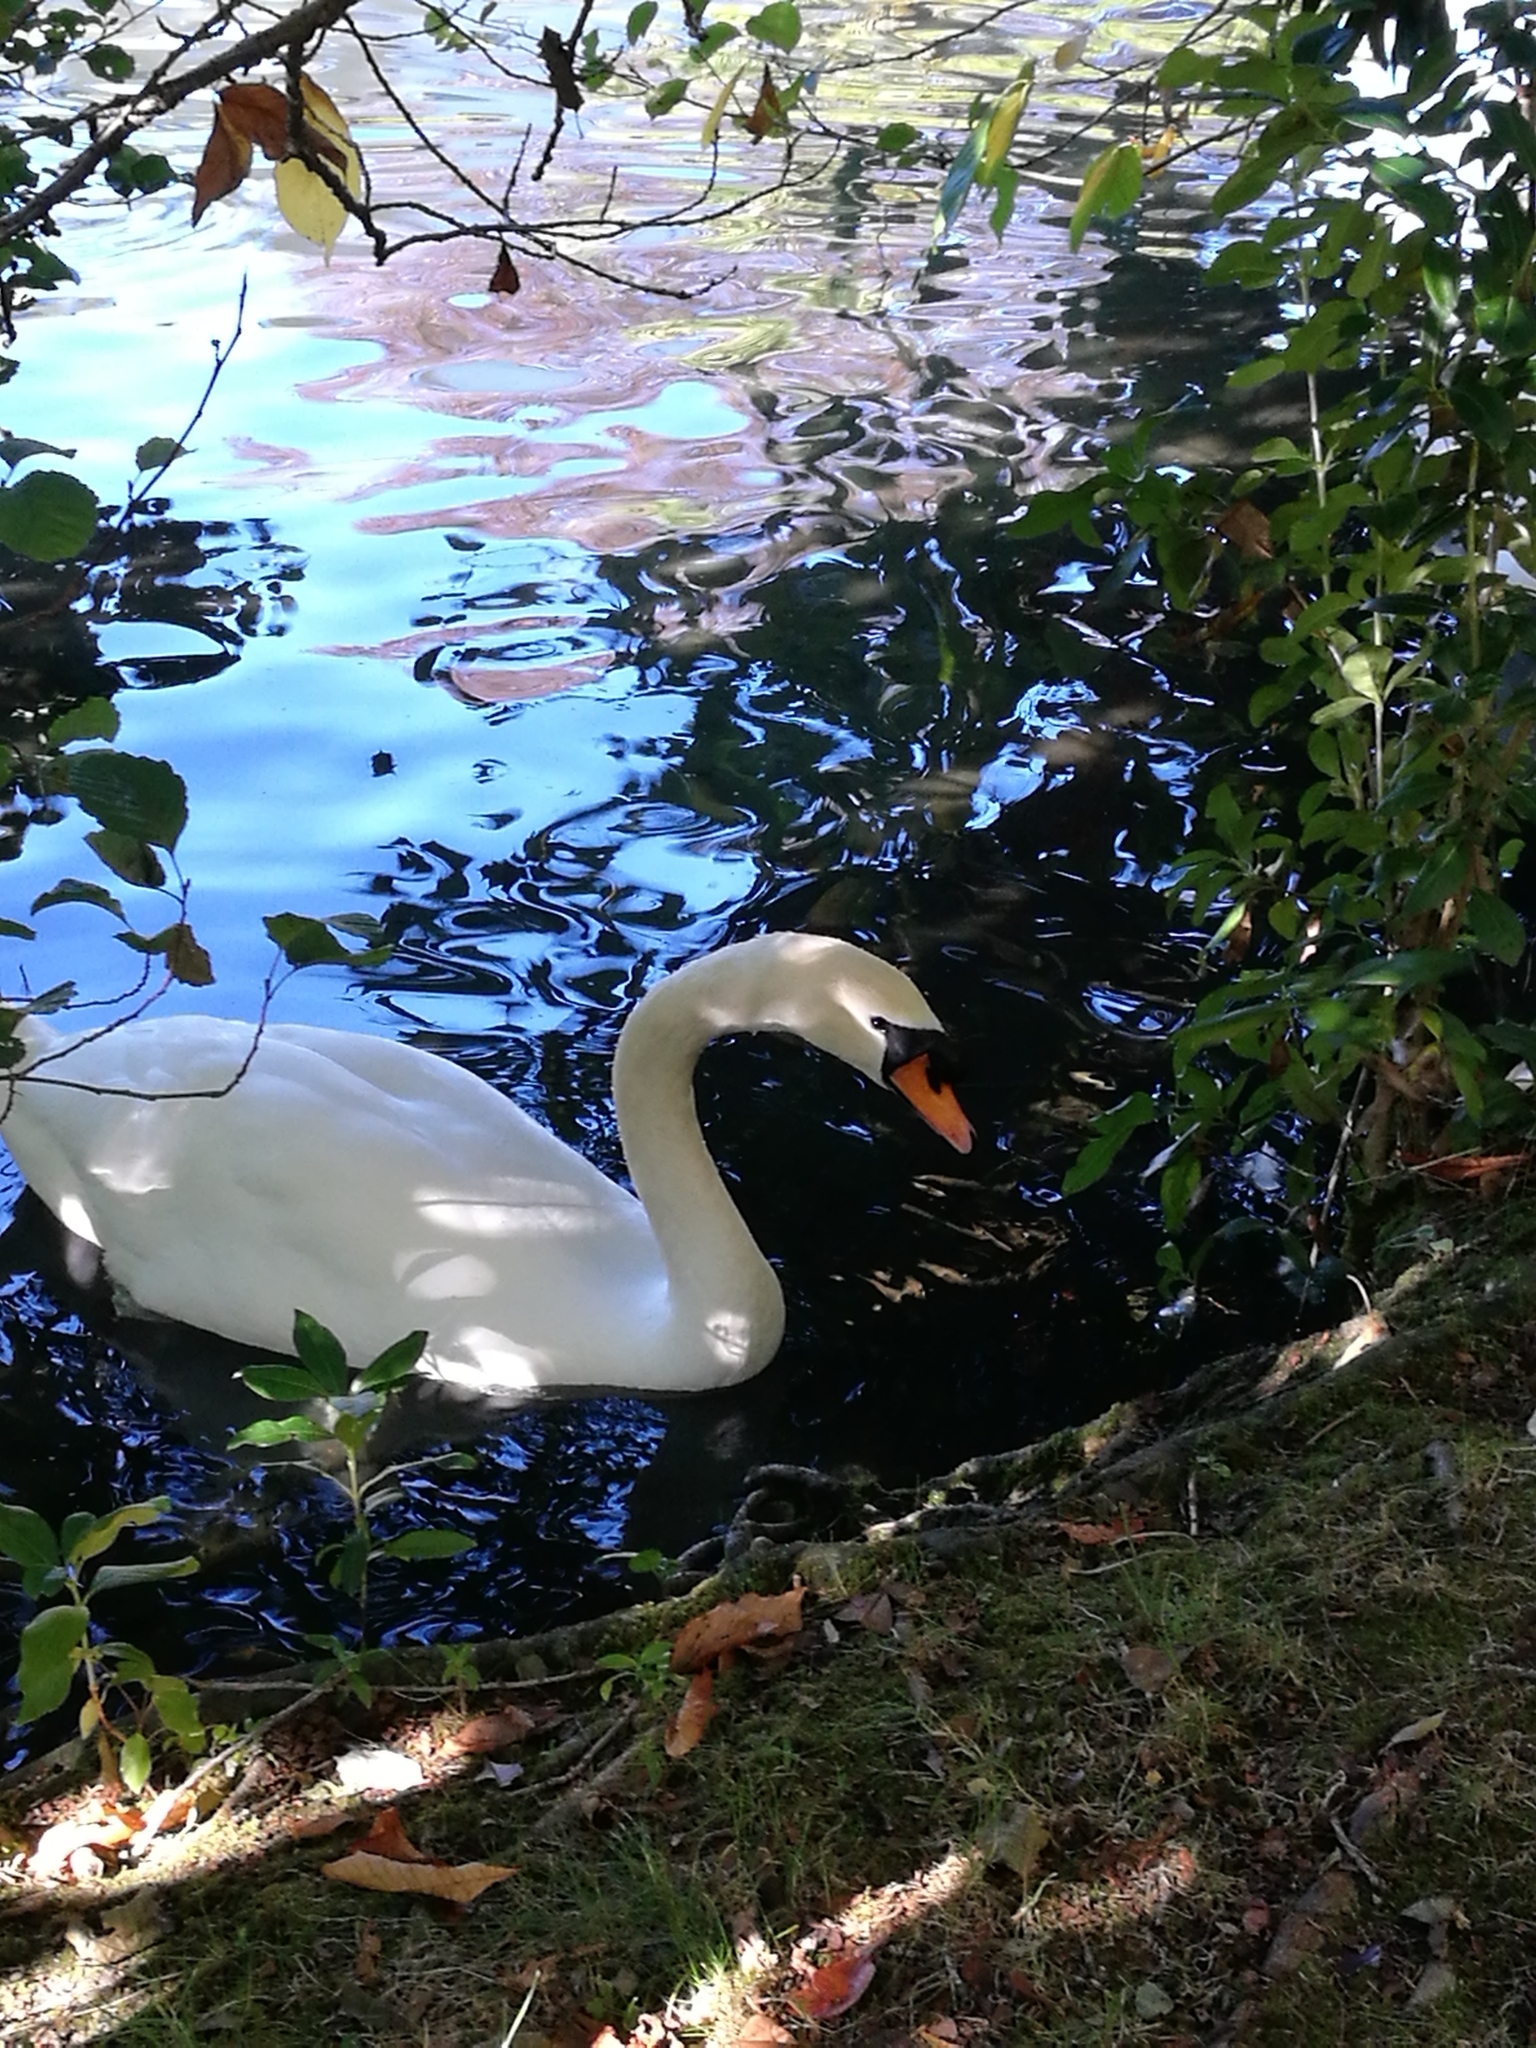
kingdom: Animalia
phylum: Chordata
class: Aves
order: Anseriformes
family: Anatidae
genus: Cygnus
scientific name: Cygnus olor
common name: Mute swan
